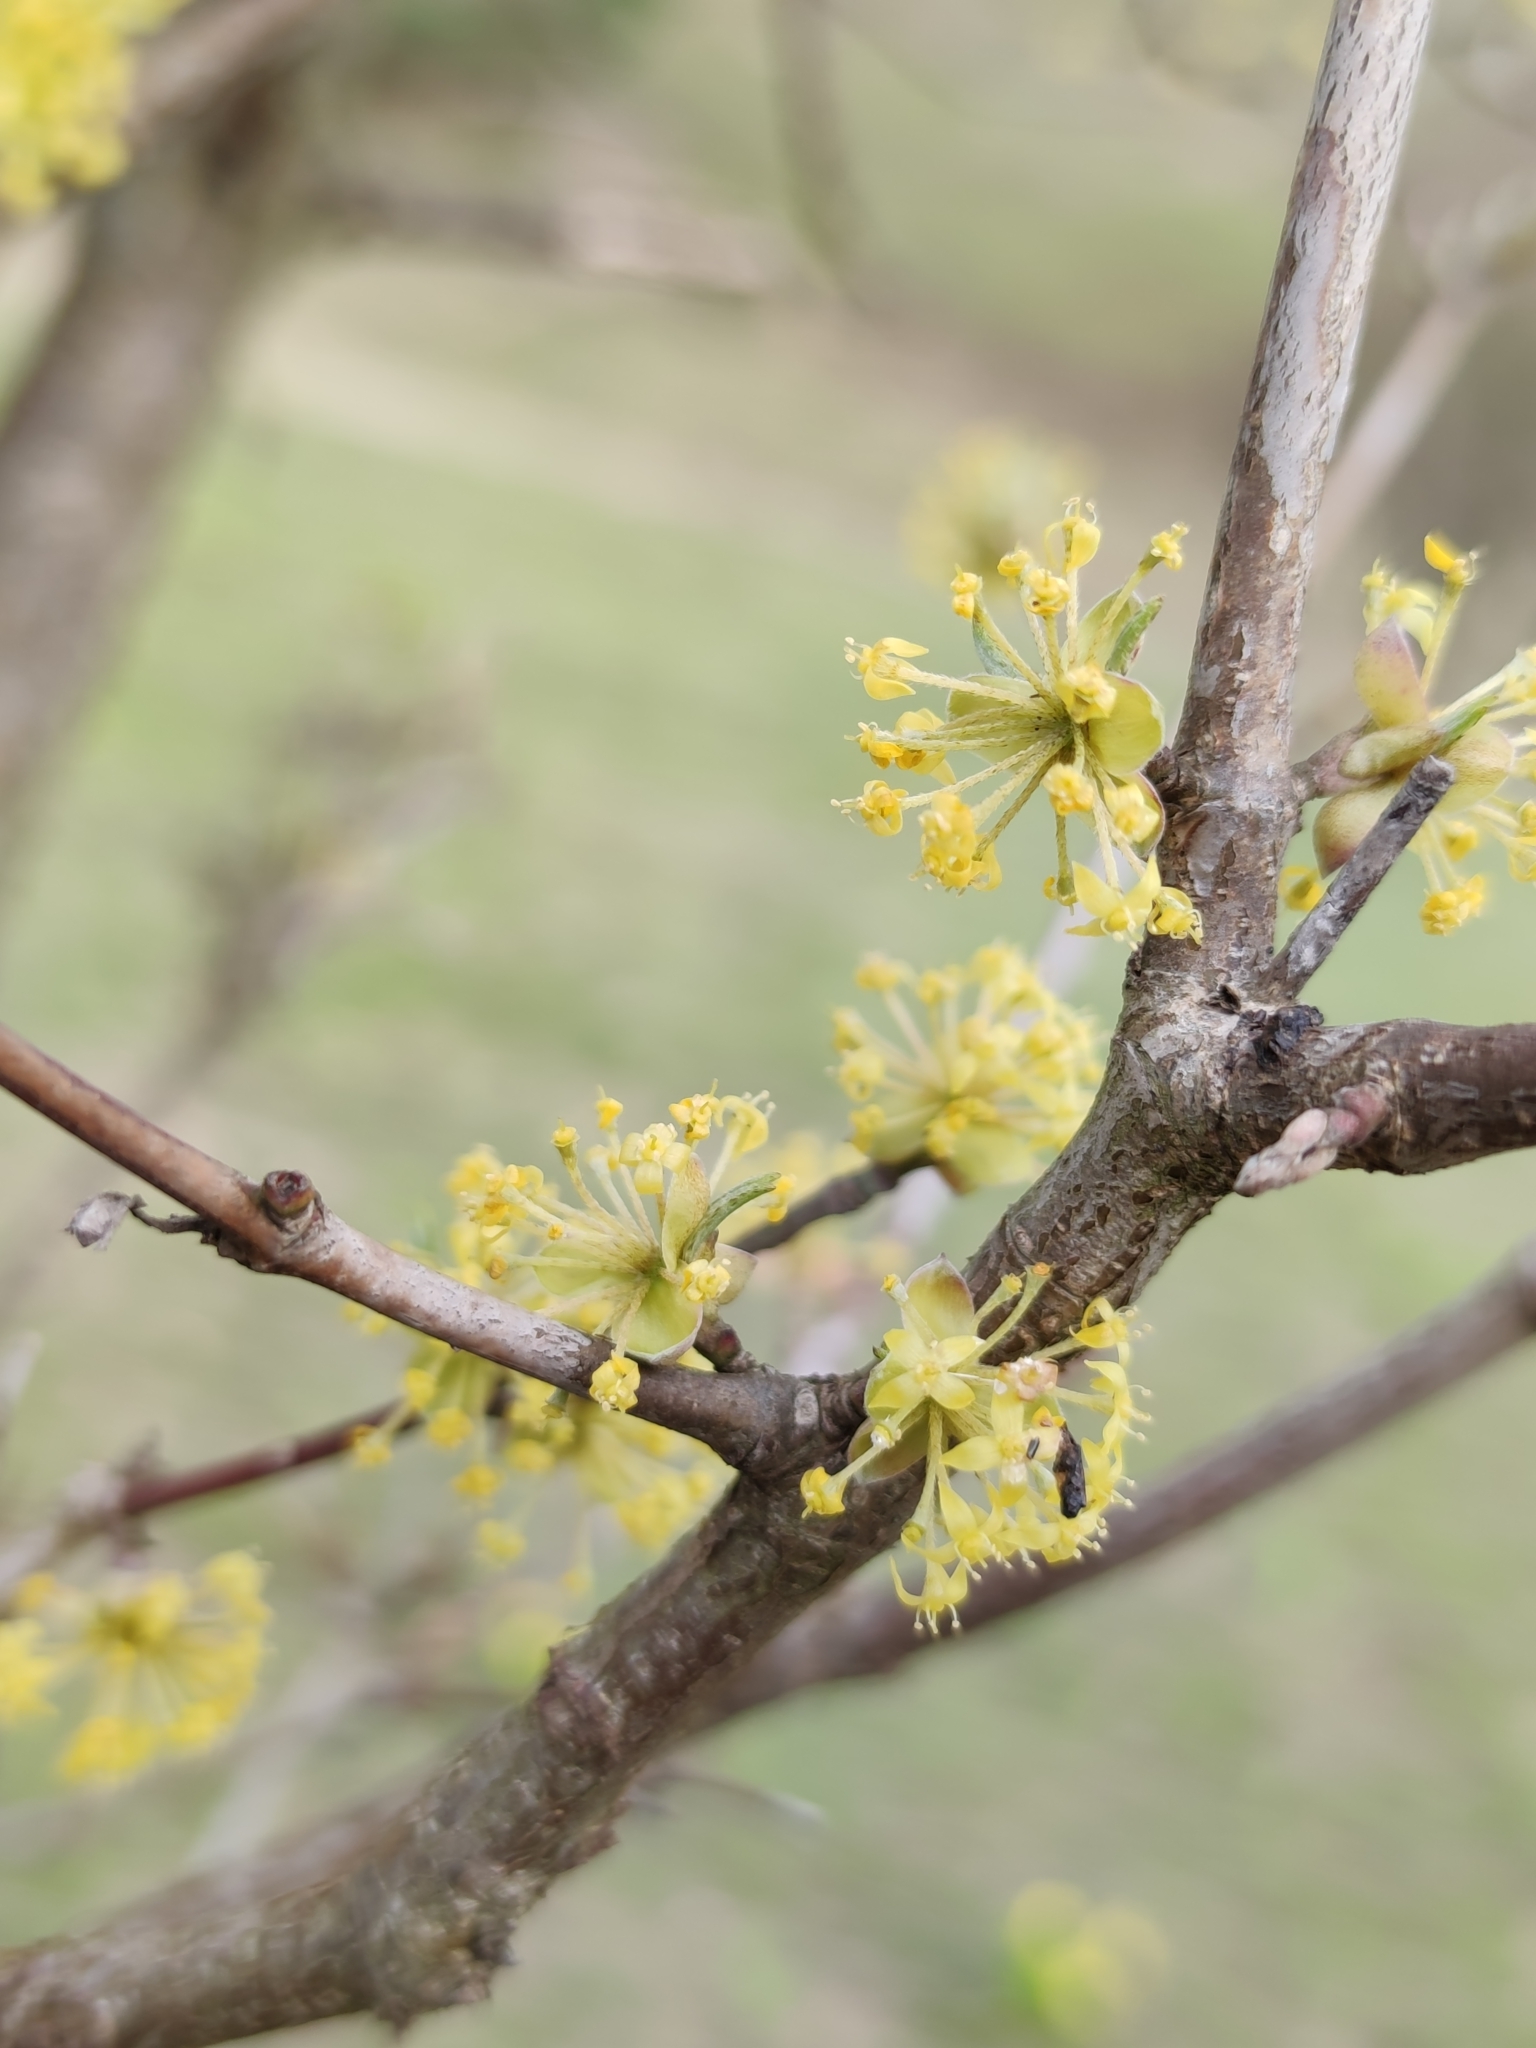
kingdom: Plantae
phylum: Tracheophyta
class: Magnoliopsida
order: Cornales
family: Cornaceae
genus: Cornus
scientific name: Cornus mas
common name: Cornelian-cherry
